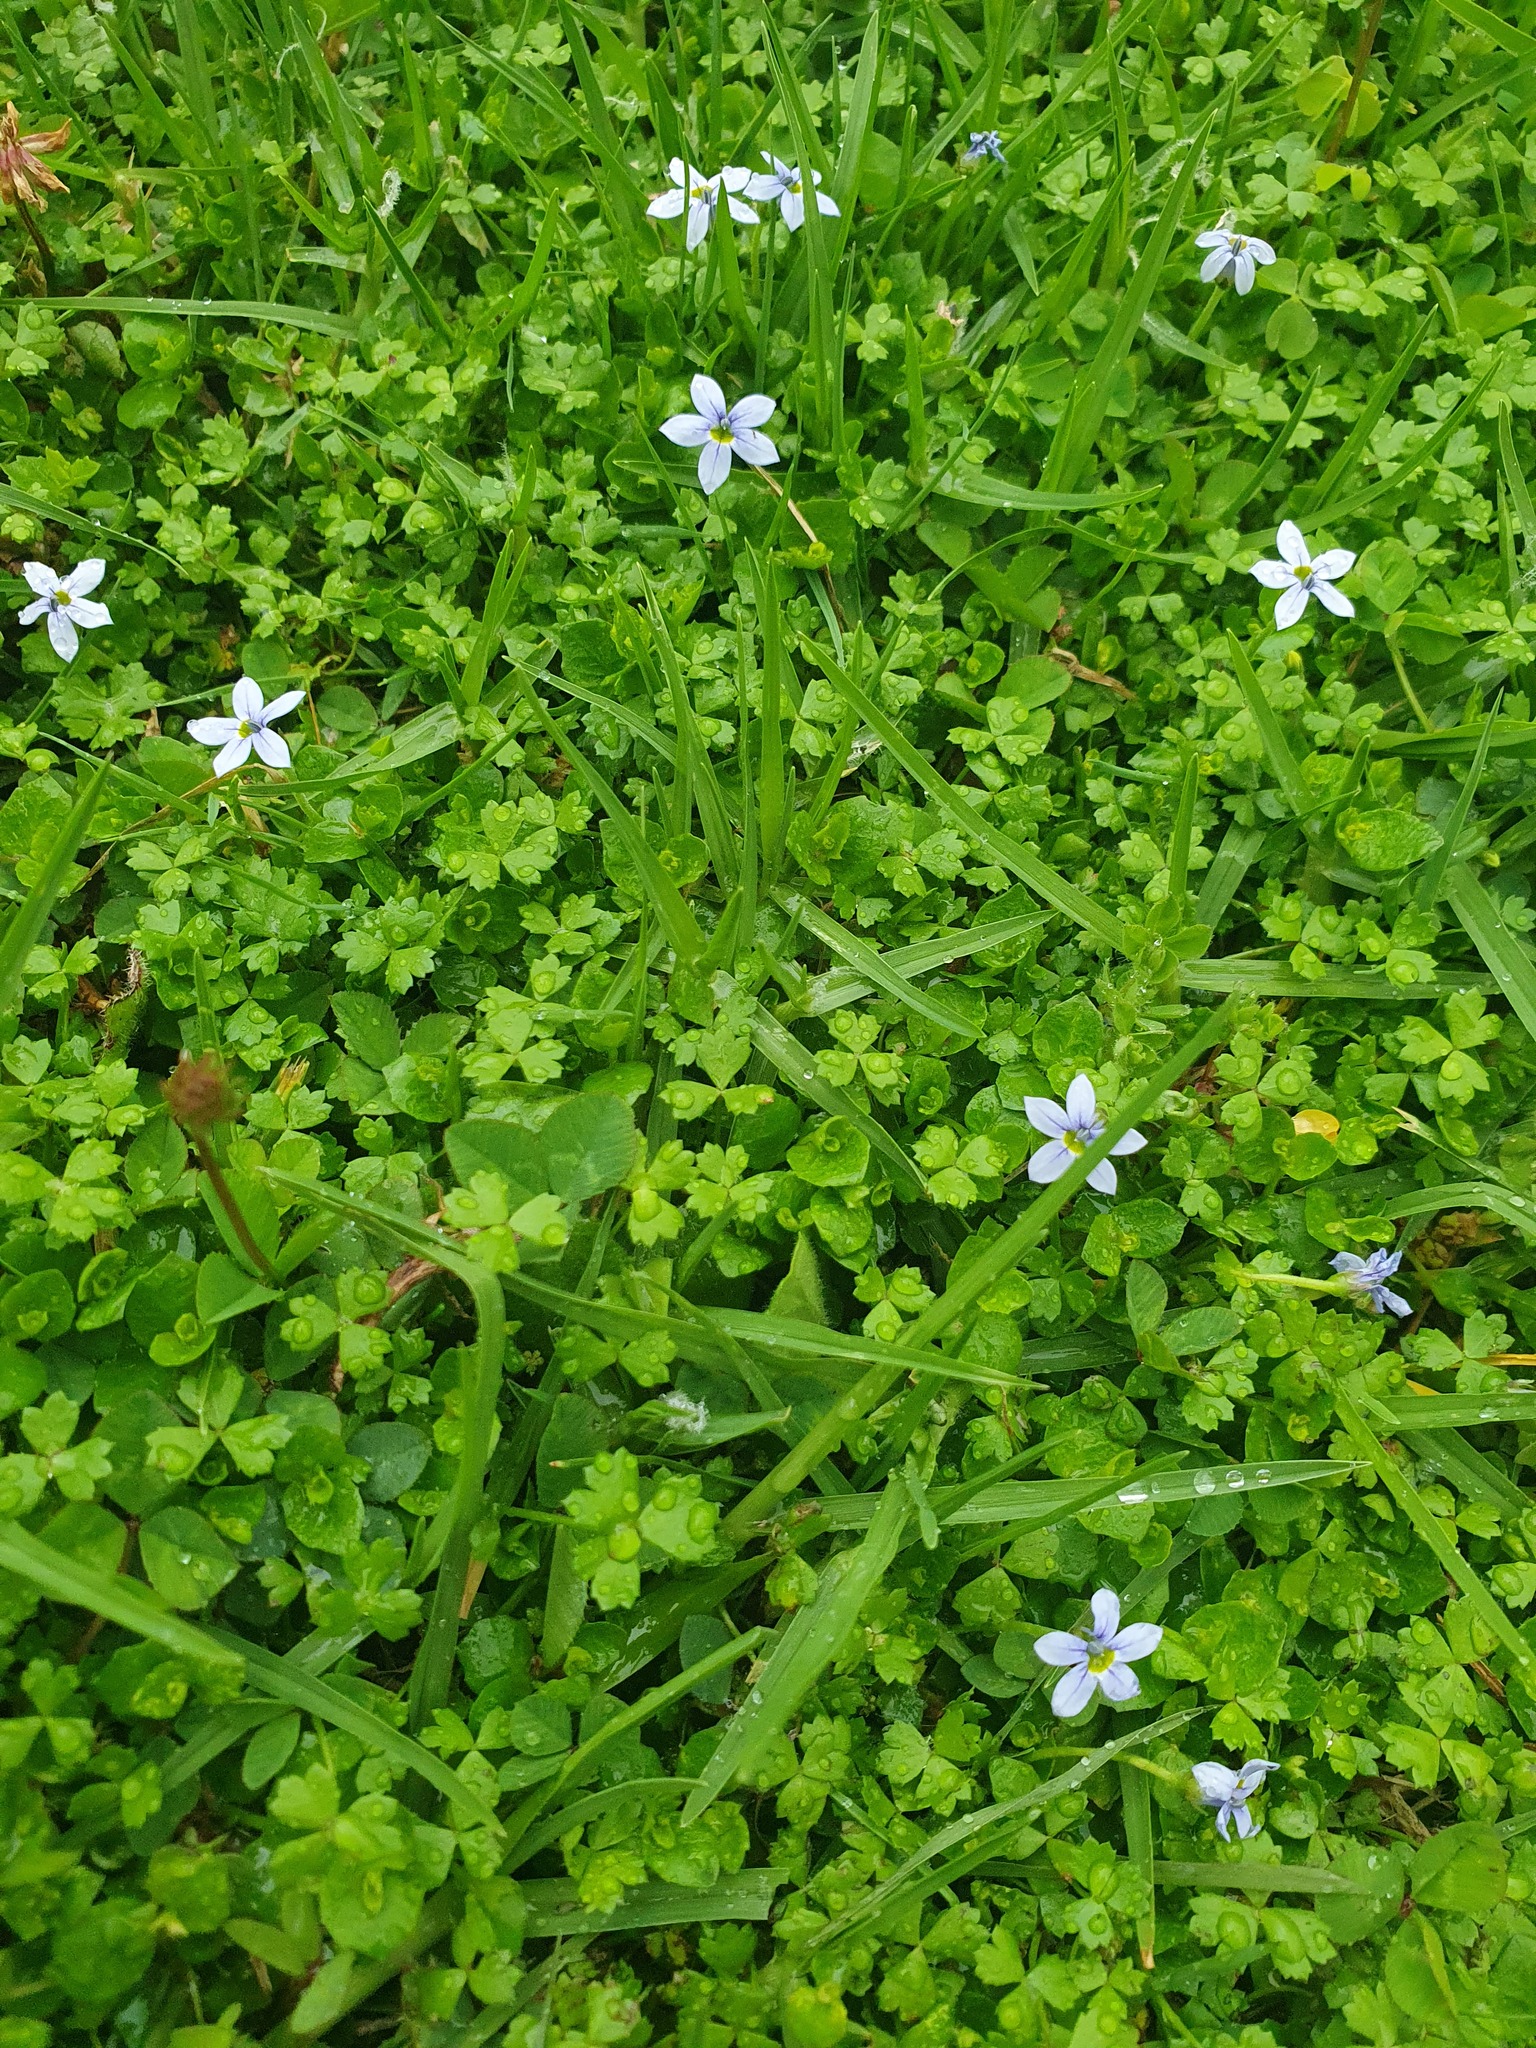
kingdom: Plantae
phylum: Tracheophyta
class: Magnoliopsida
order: Asterales
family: Campanulaceae
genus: Lobelia
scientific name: Lobelia pedunculata
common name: Matted pratia
